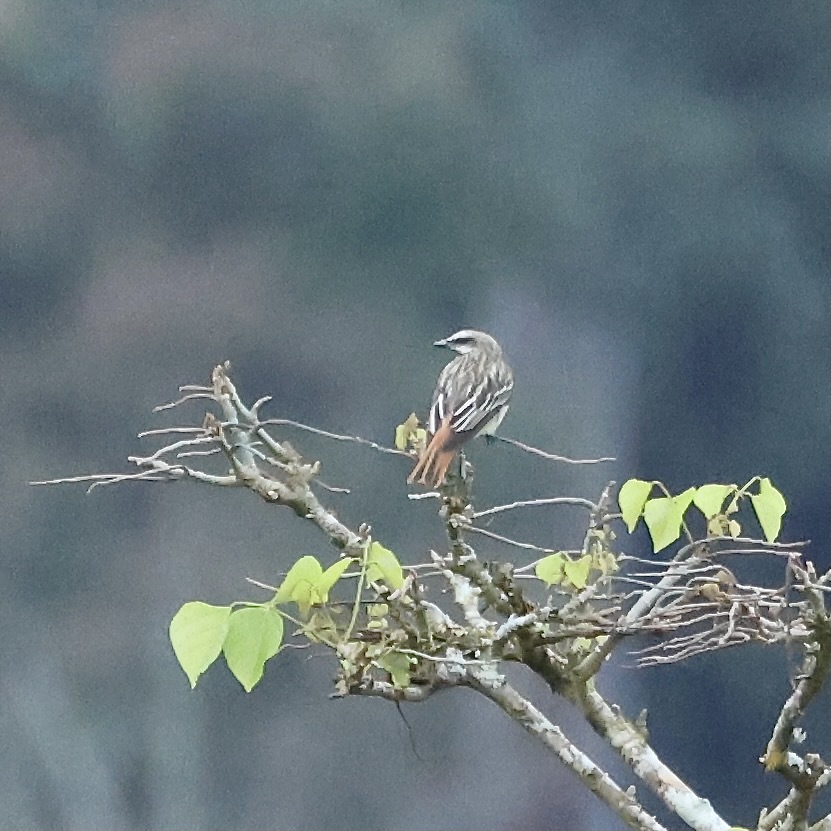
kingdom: Animalia
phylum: Chordata
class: Aves
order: Passeriformes
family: Tyrannidae
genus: Myiodynastes
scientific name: Myiodynastes luteiventris
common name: Sulphur-bellied flycatcher
